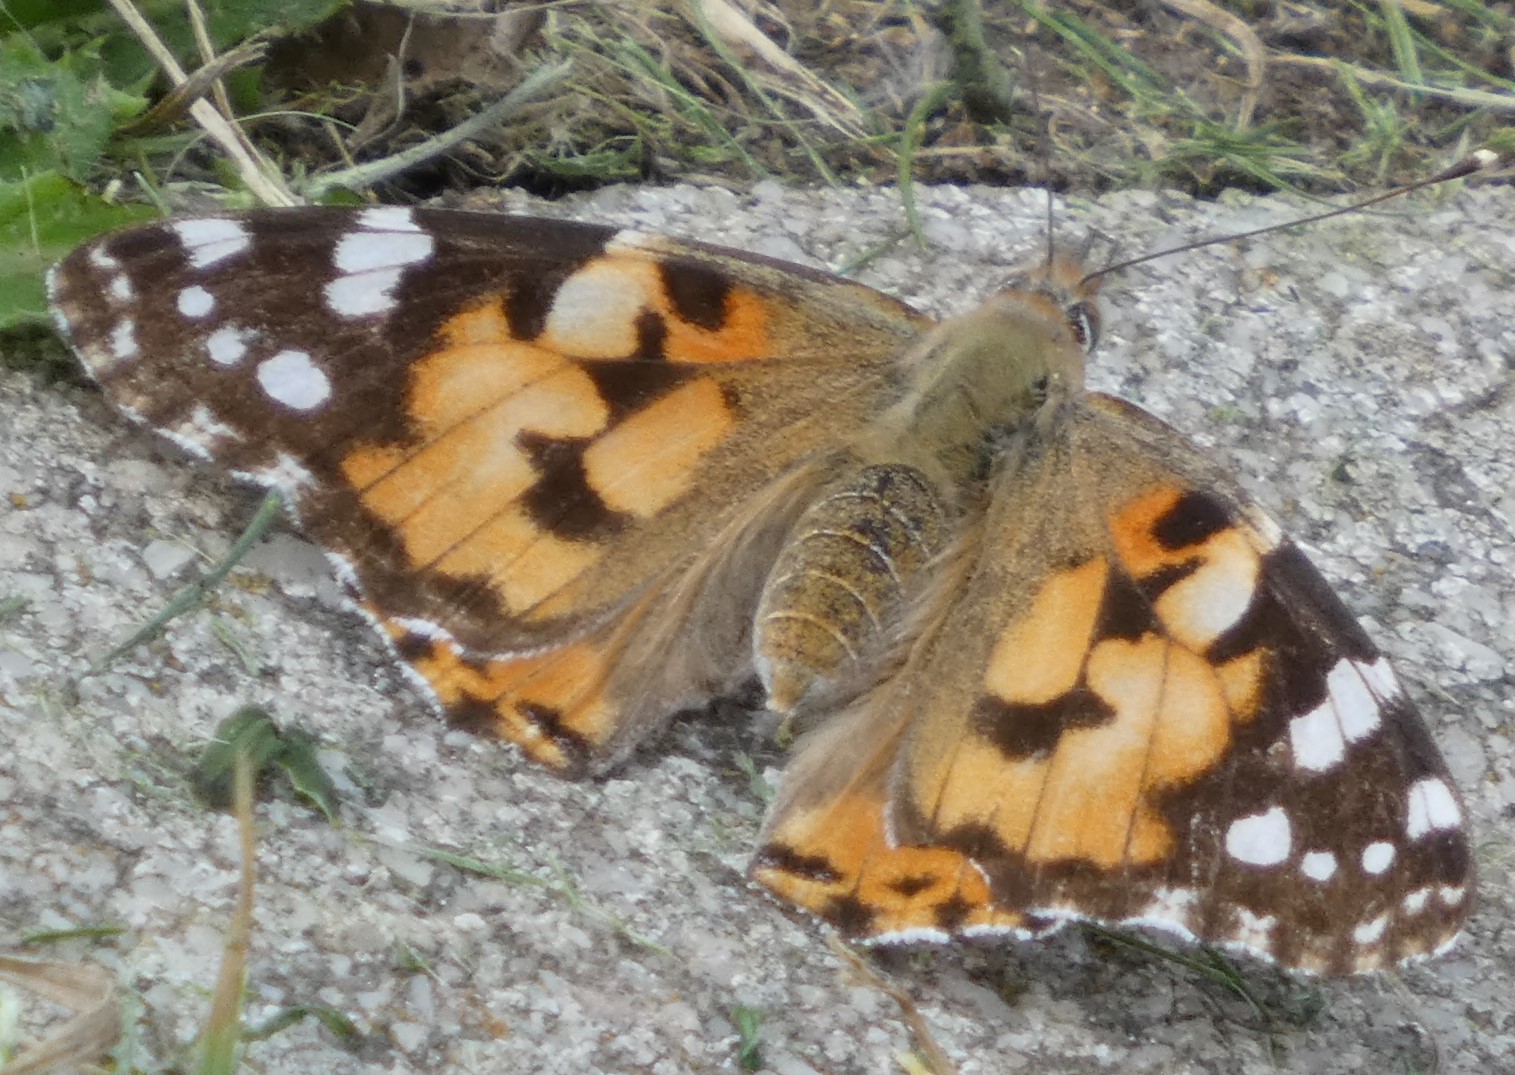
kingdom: Animalia
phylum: Arthropoda
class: Insecta
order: Lepidoptera
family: Nymphalidae
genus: Vanessa
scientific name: Vanessa cardui
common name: Painted lady
